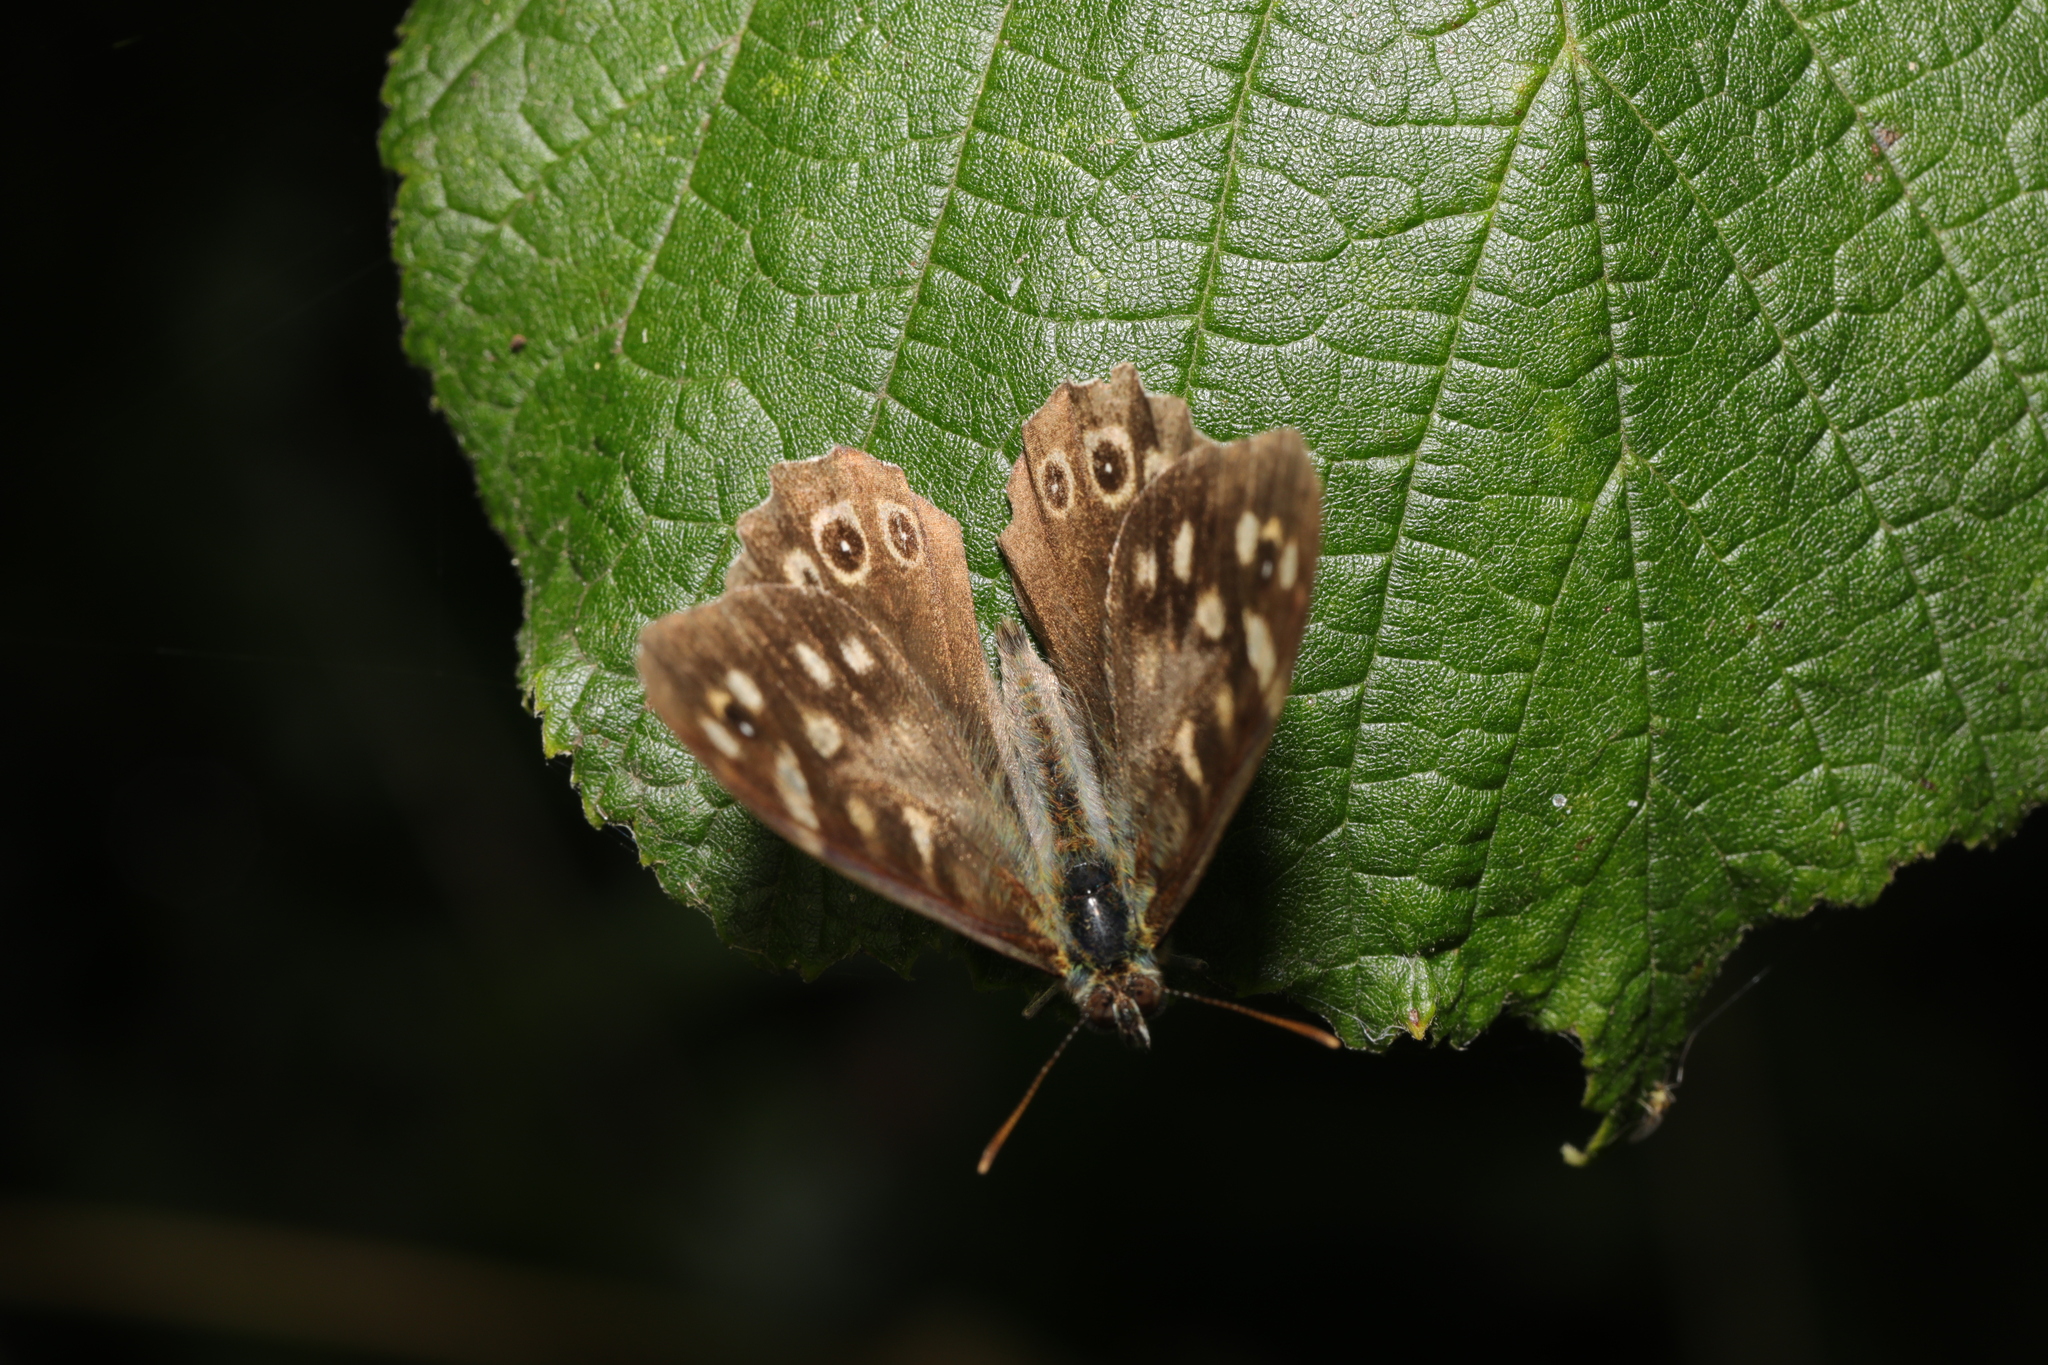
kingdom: Animalia
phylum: Arthropoda
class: Insecta
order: Lepidoptera
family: Nymphalidae
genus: Pararge
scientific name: Pararge aegeria
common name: Speckled wood
